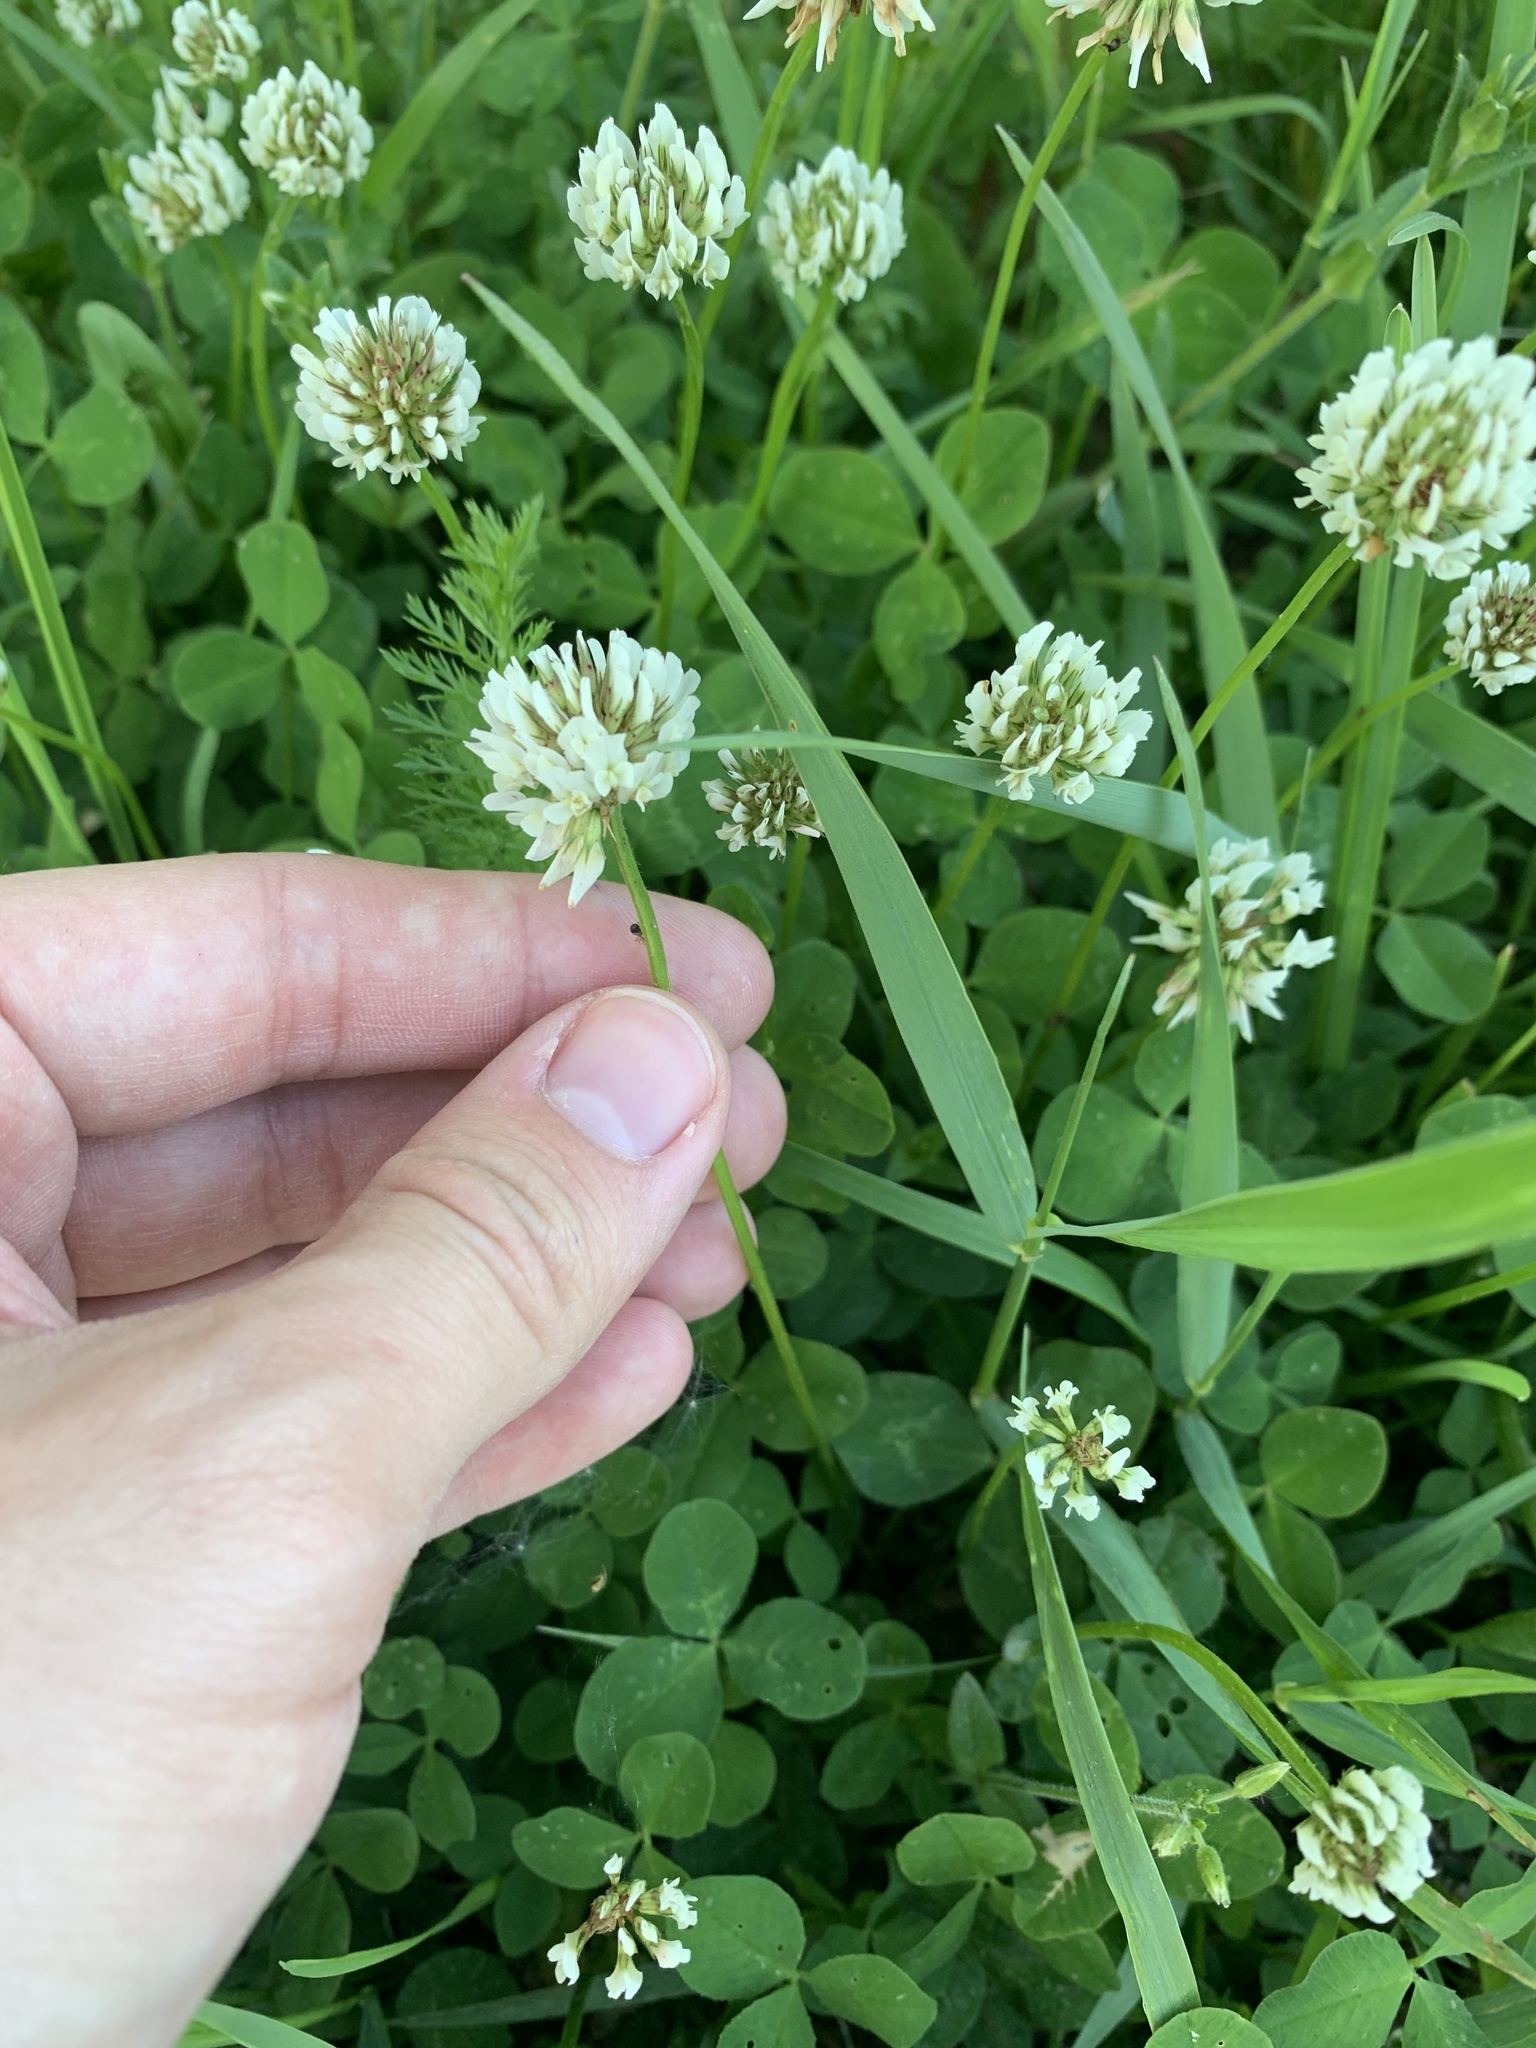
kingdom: Plantae
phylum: Tracheophyta
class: Magnoliopsida
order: Fabales
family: Fabaceae
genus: Trifolium
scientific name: Trifolium repens
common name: White clover
